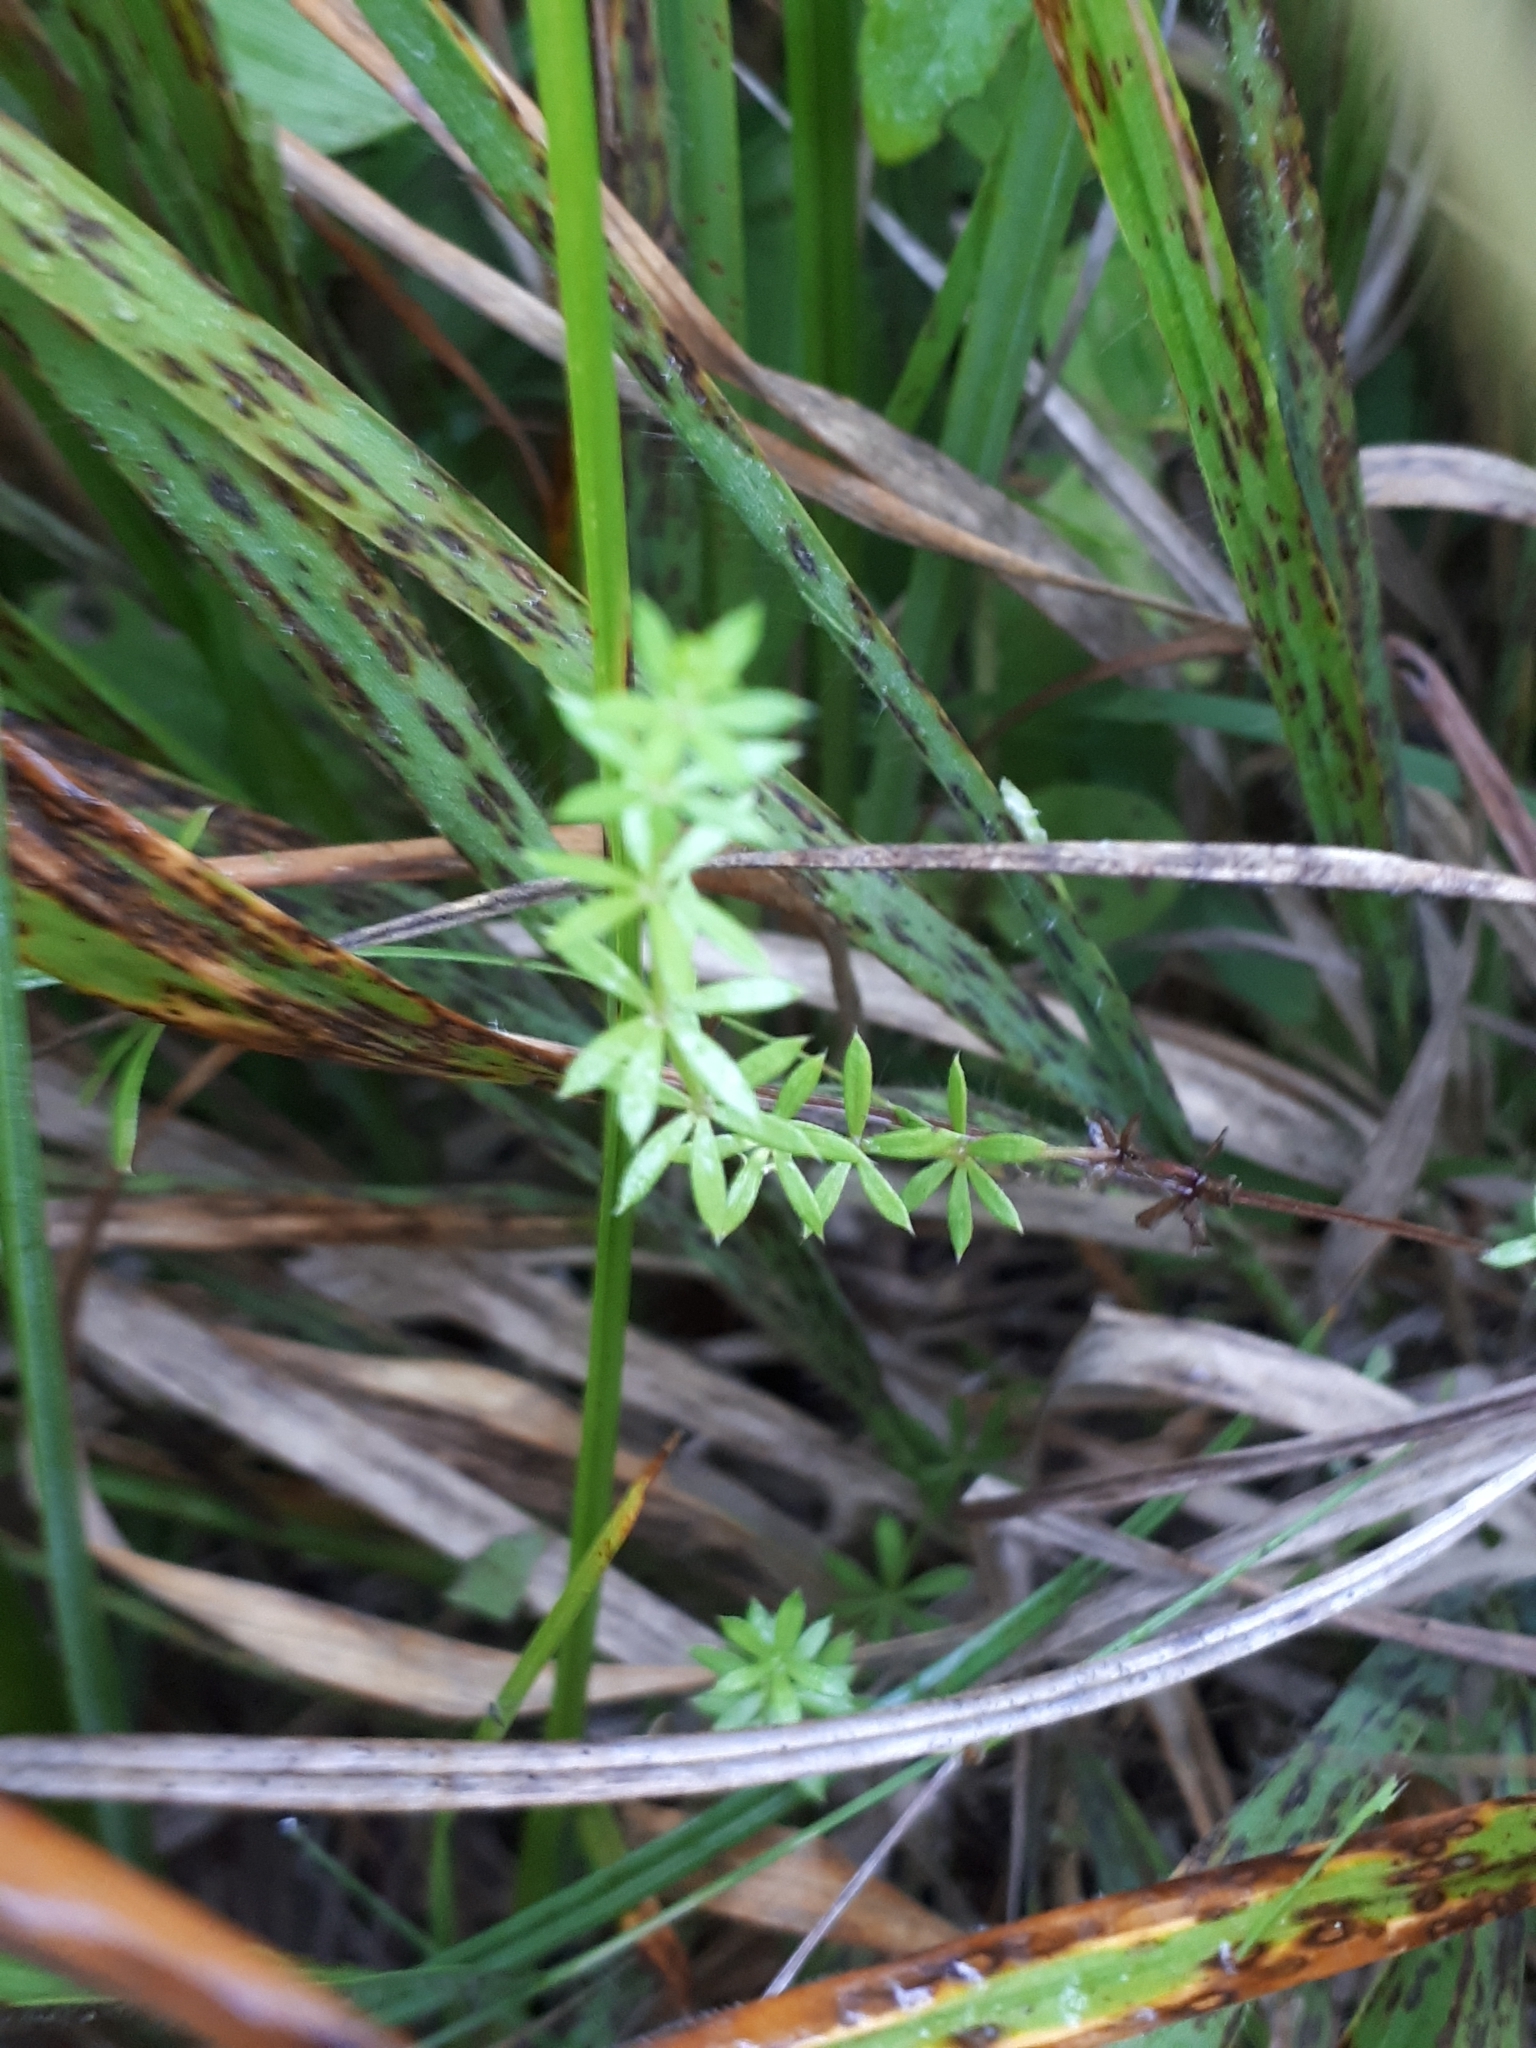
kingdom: Plantae
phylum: Tracheophyta
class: Magnoliopsida
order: Gentianales
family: Rubiaceae
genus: Galium
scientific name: Galium uliginosum
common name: Fen bedstraw
